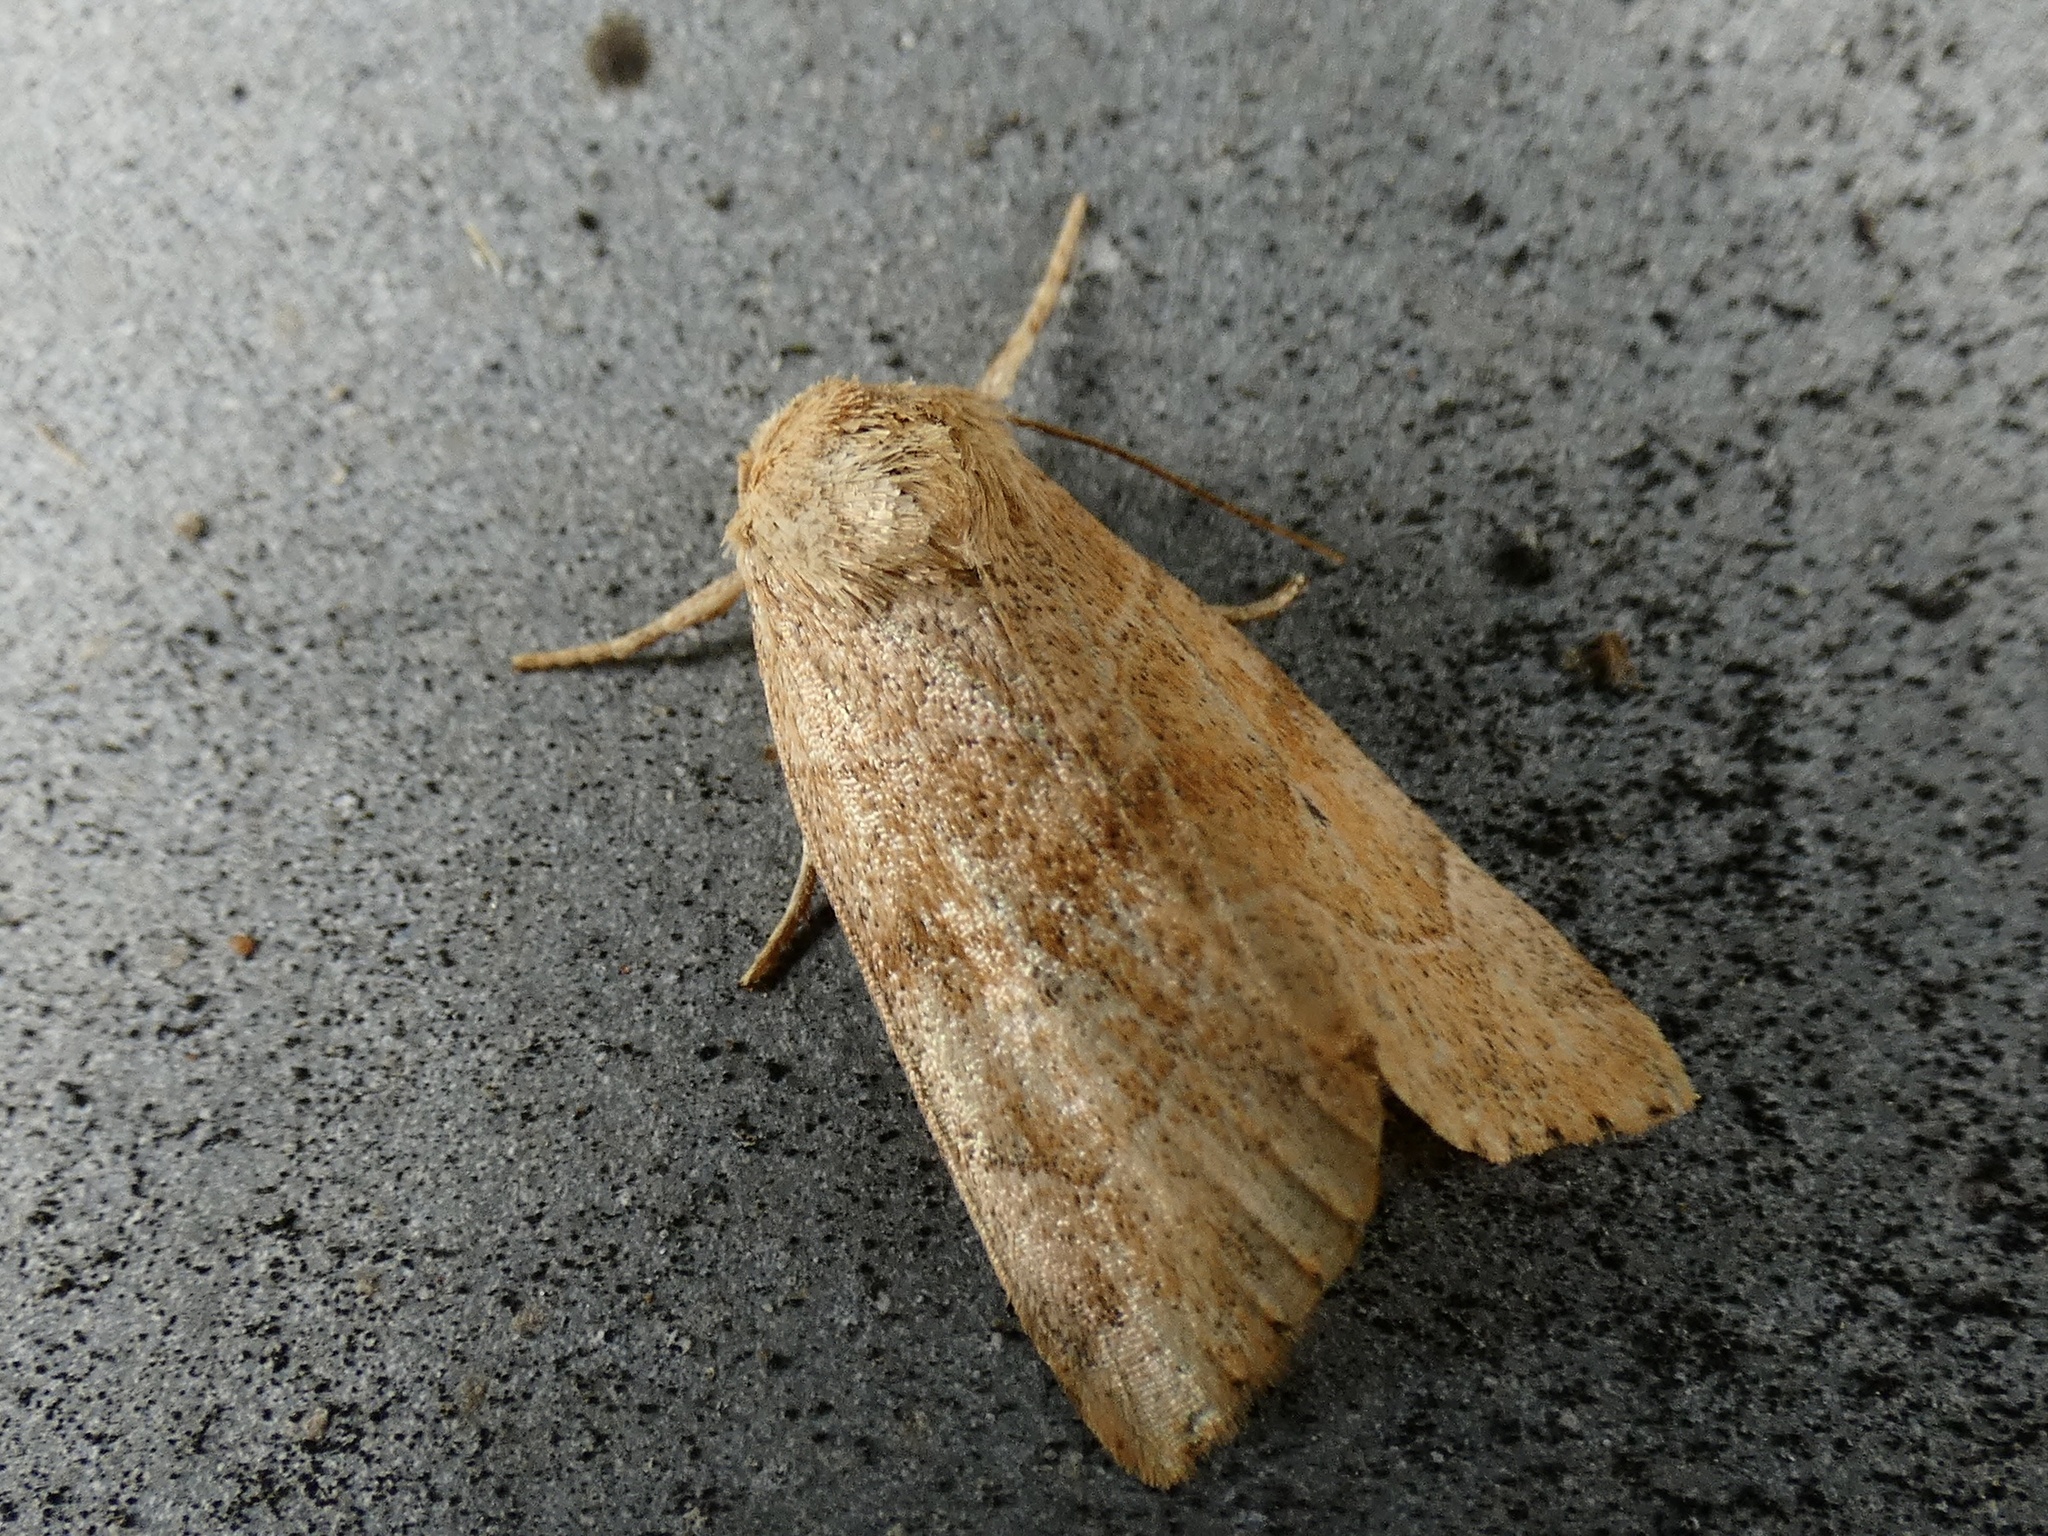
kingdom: Animalia
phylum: Arthropoda
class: Insecta
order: Lepidoptera
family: Noctuidae
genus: Cosmia
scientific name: Cosmia trapezina
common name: Dun-bar
